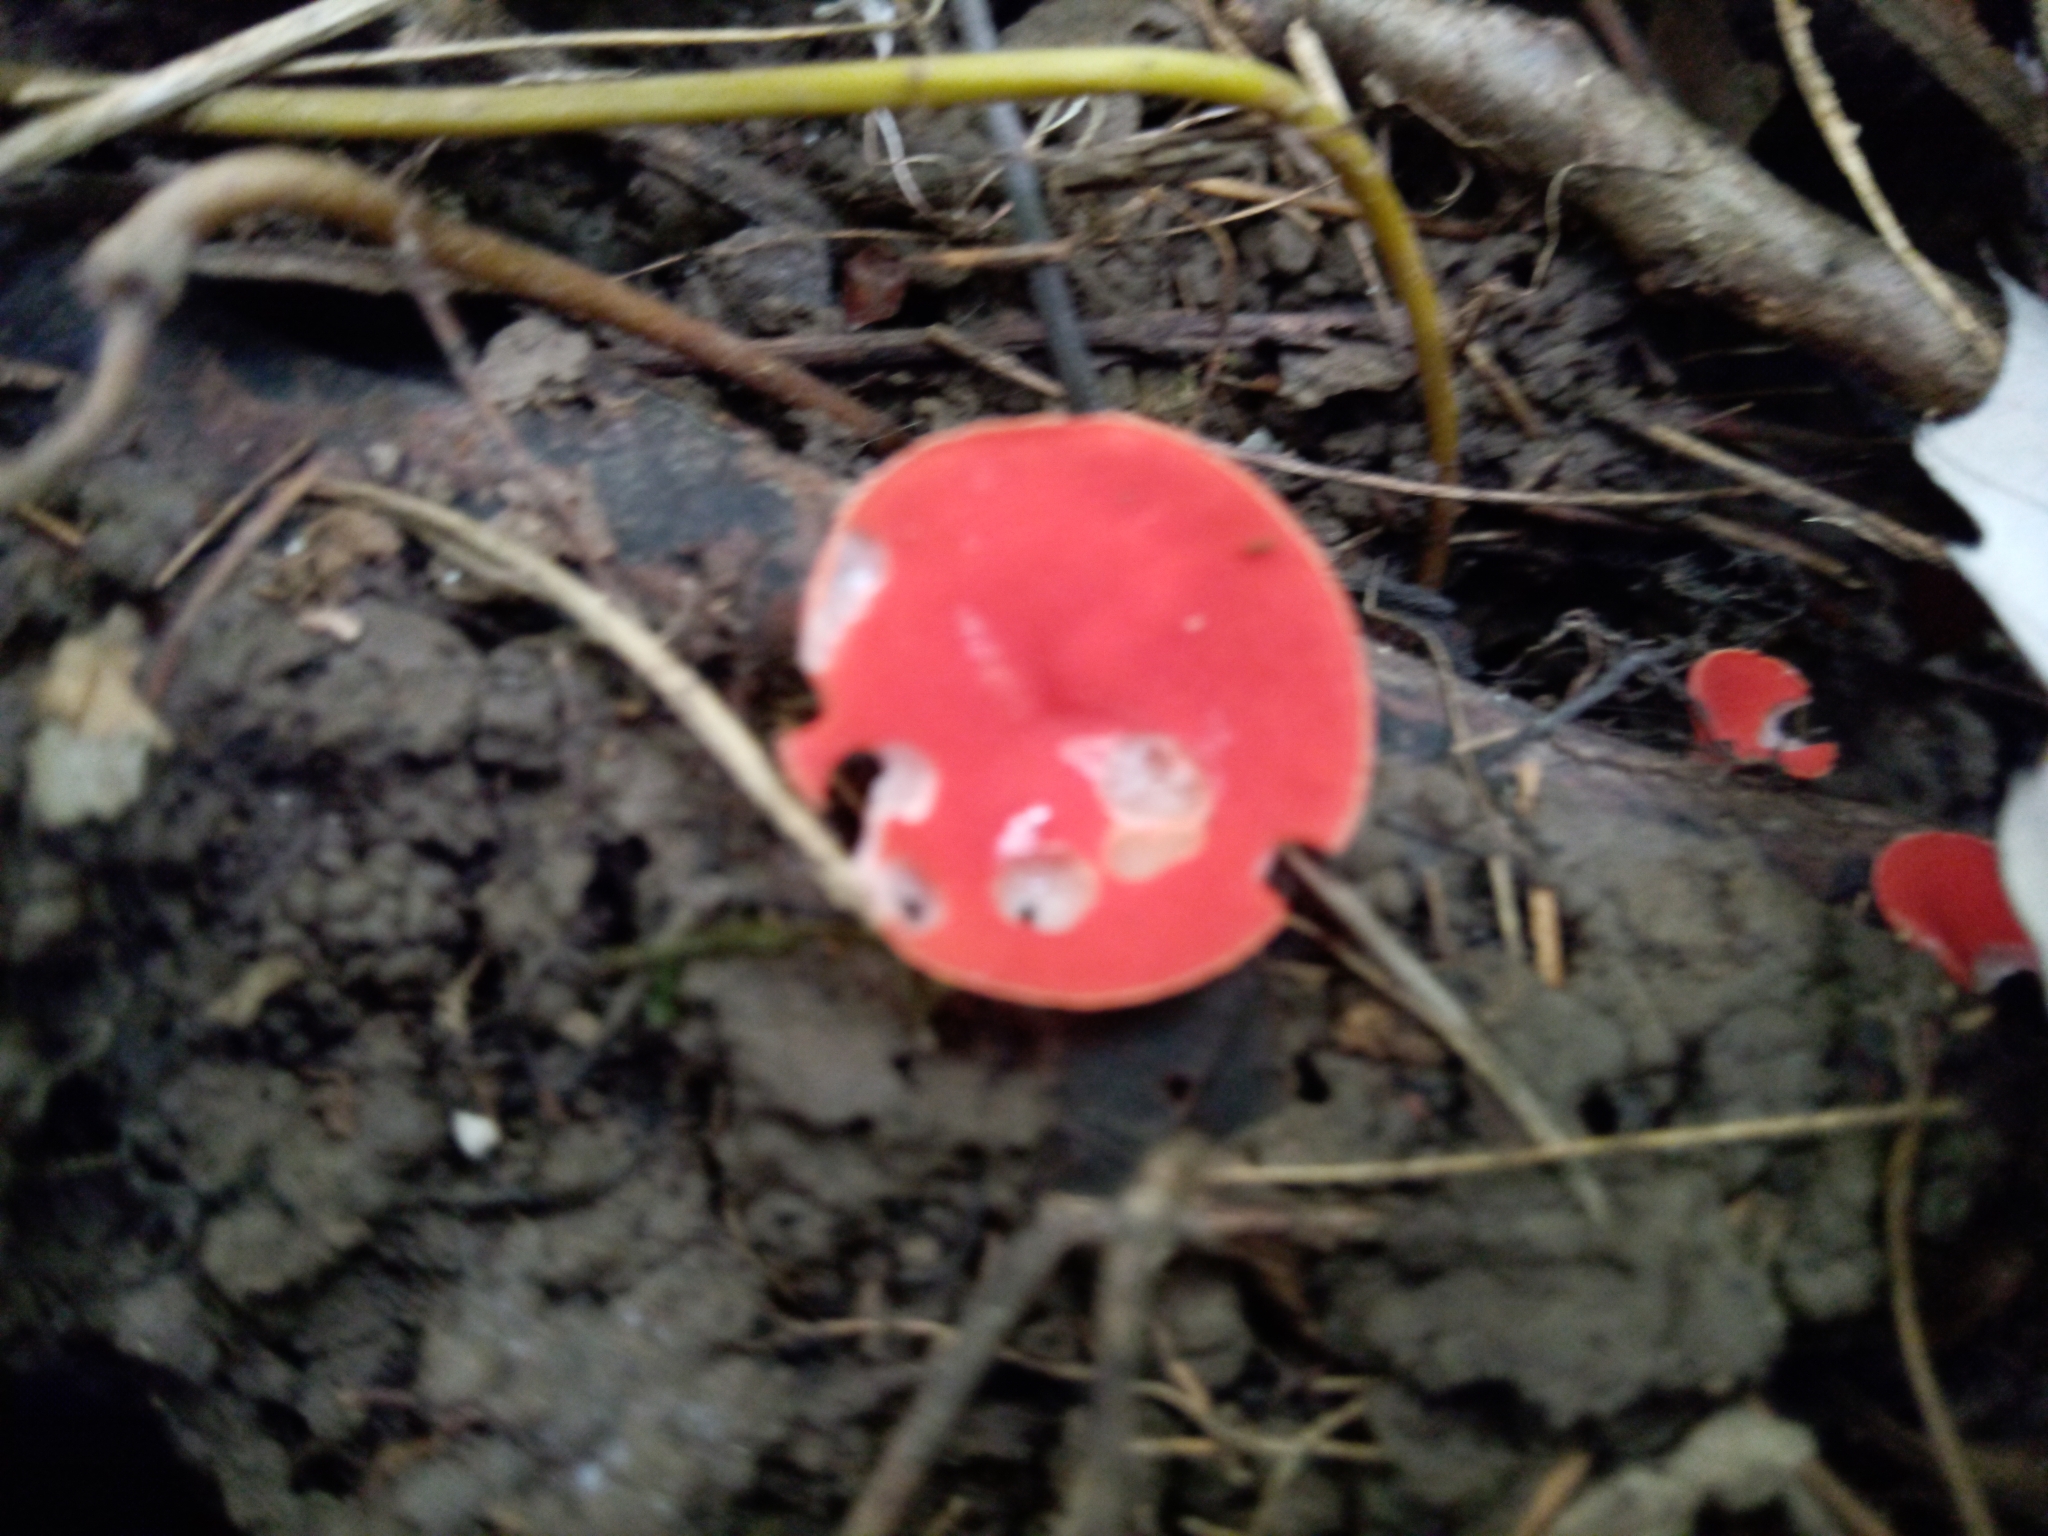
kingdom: Fungi
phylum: Ascomycota
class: Pezizomycetes
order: Pezizales
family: Sarcoscyphaceae
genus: Sarcoscypha
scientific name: Sarcoscypha occidentalis
